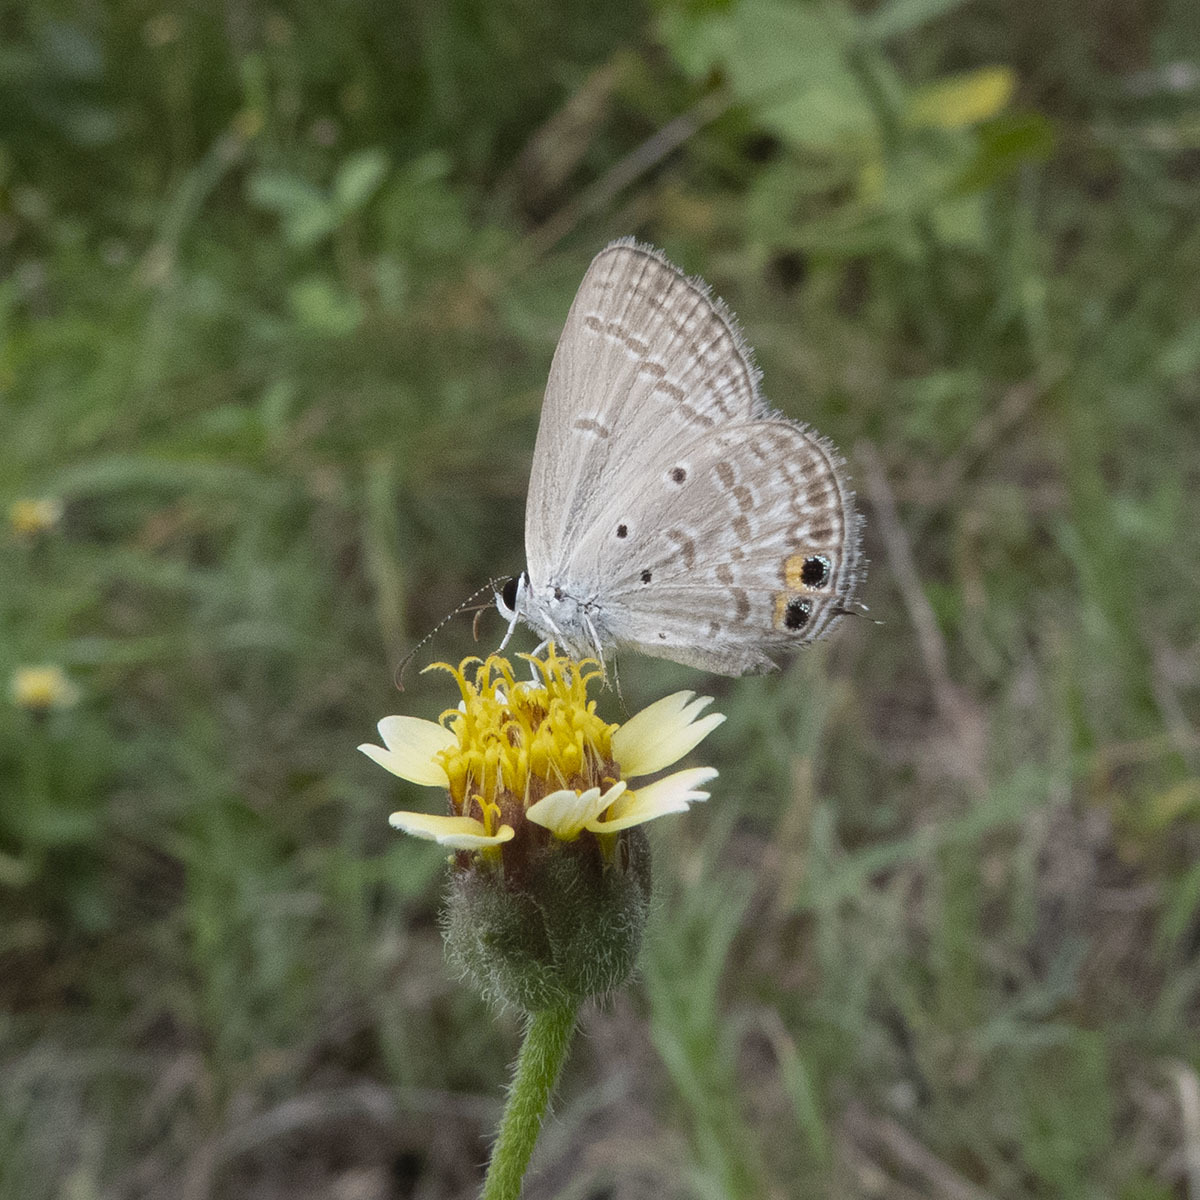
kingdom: Animalia
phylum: Arthropoda
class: Insecta
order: Lepidoptera
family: Lycaenidae
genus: Euchrysops
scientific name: Euchrysops cnejus
